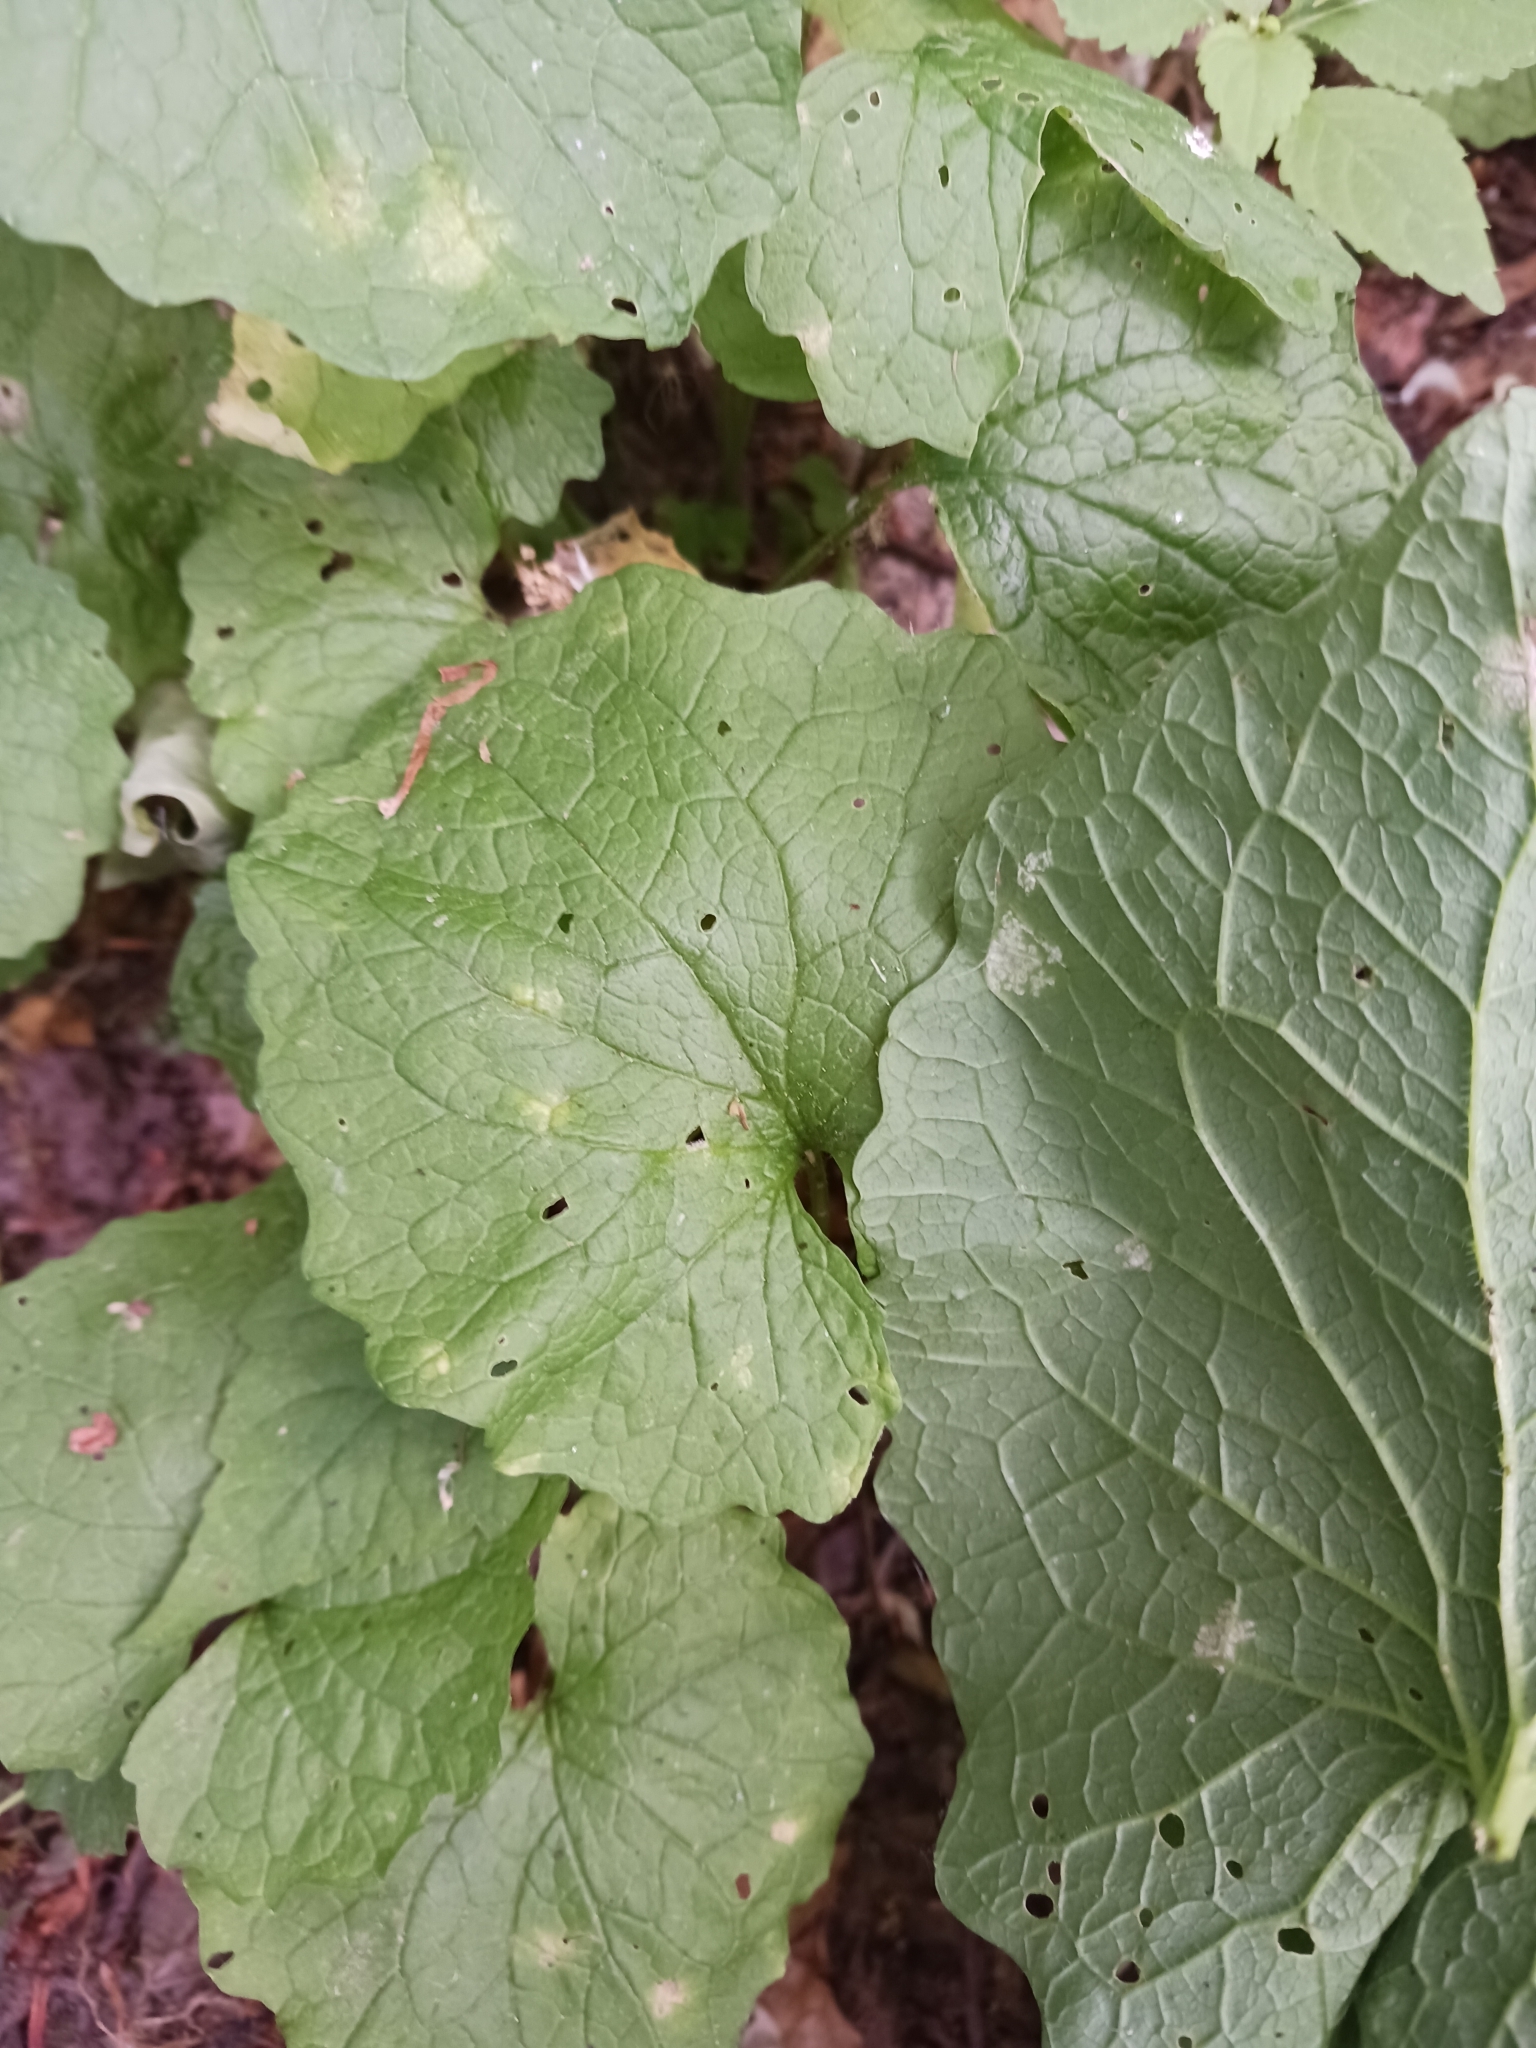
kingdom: Chromista
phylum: Oomycota
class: Peronosporea
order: Peronosporales
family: Peronosporaceae
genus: Hyaloperonospora
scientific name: Hyaloperonospora niessliana
